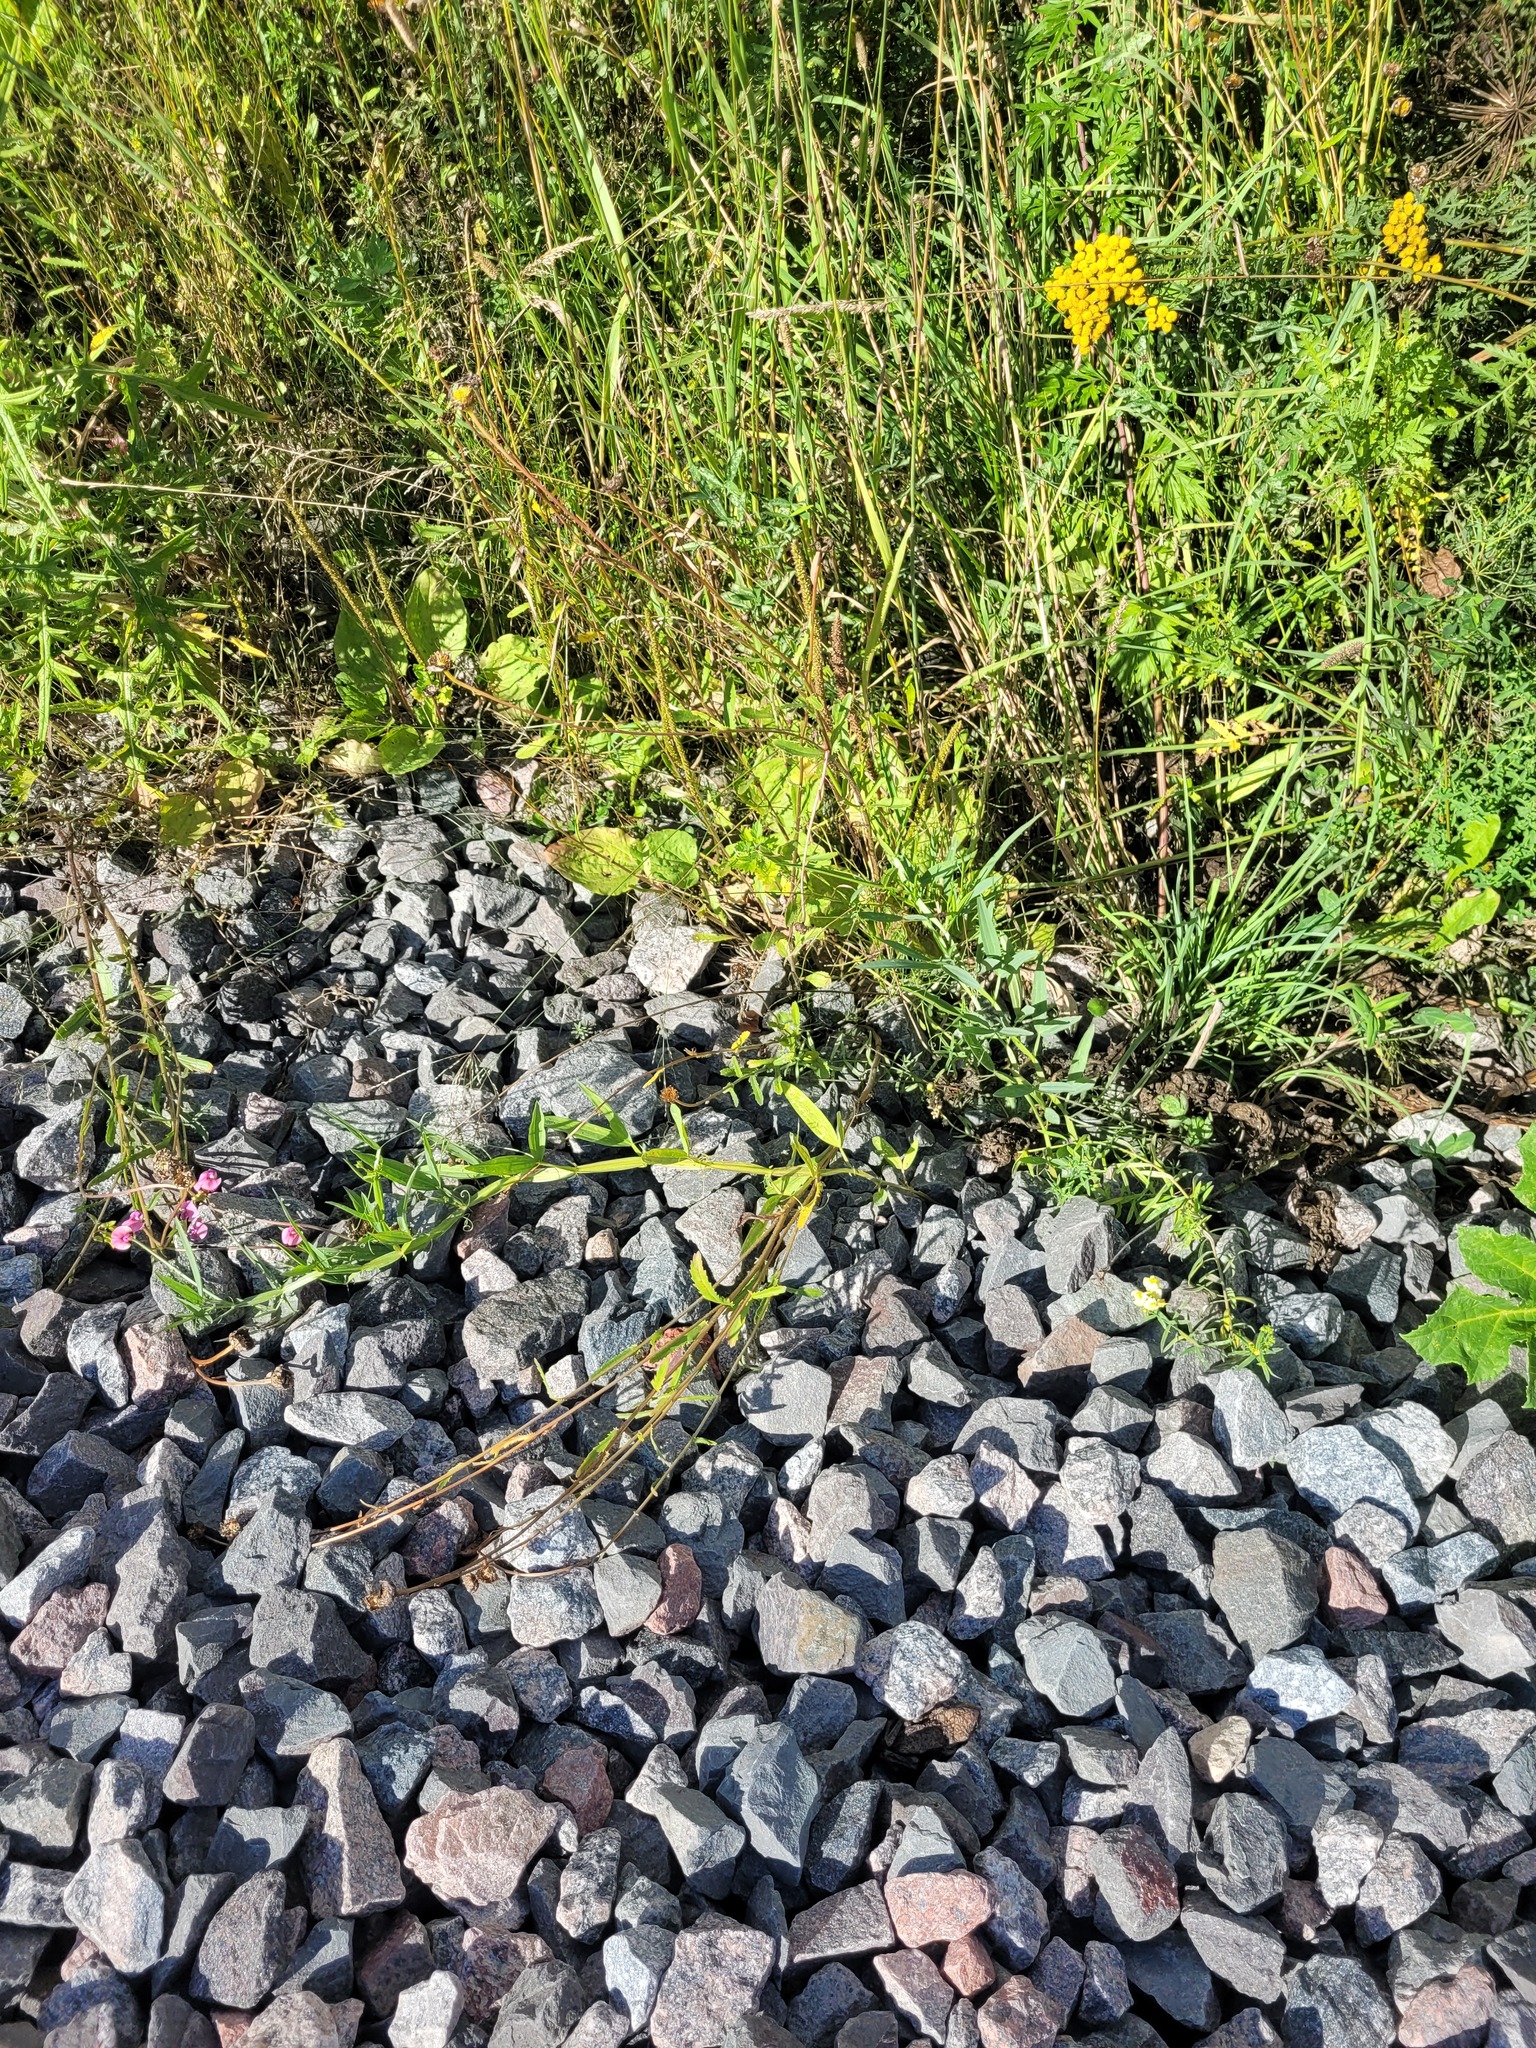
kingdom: Plantae
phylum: Tracheophyta
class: Magnoliopsida
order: Fabales
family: Fabaceae
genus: Lathyrus
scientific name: Lathyrus sylvestris
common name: Flat pea
